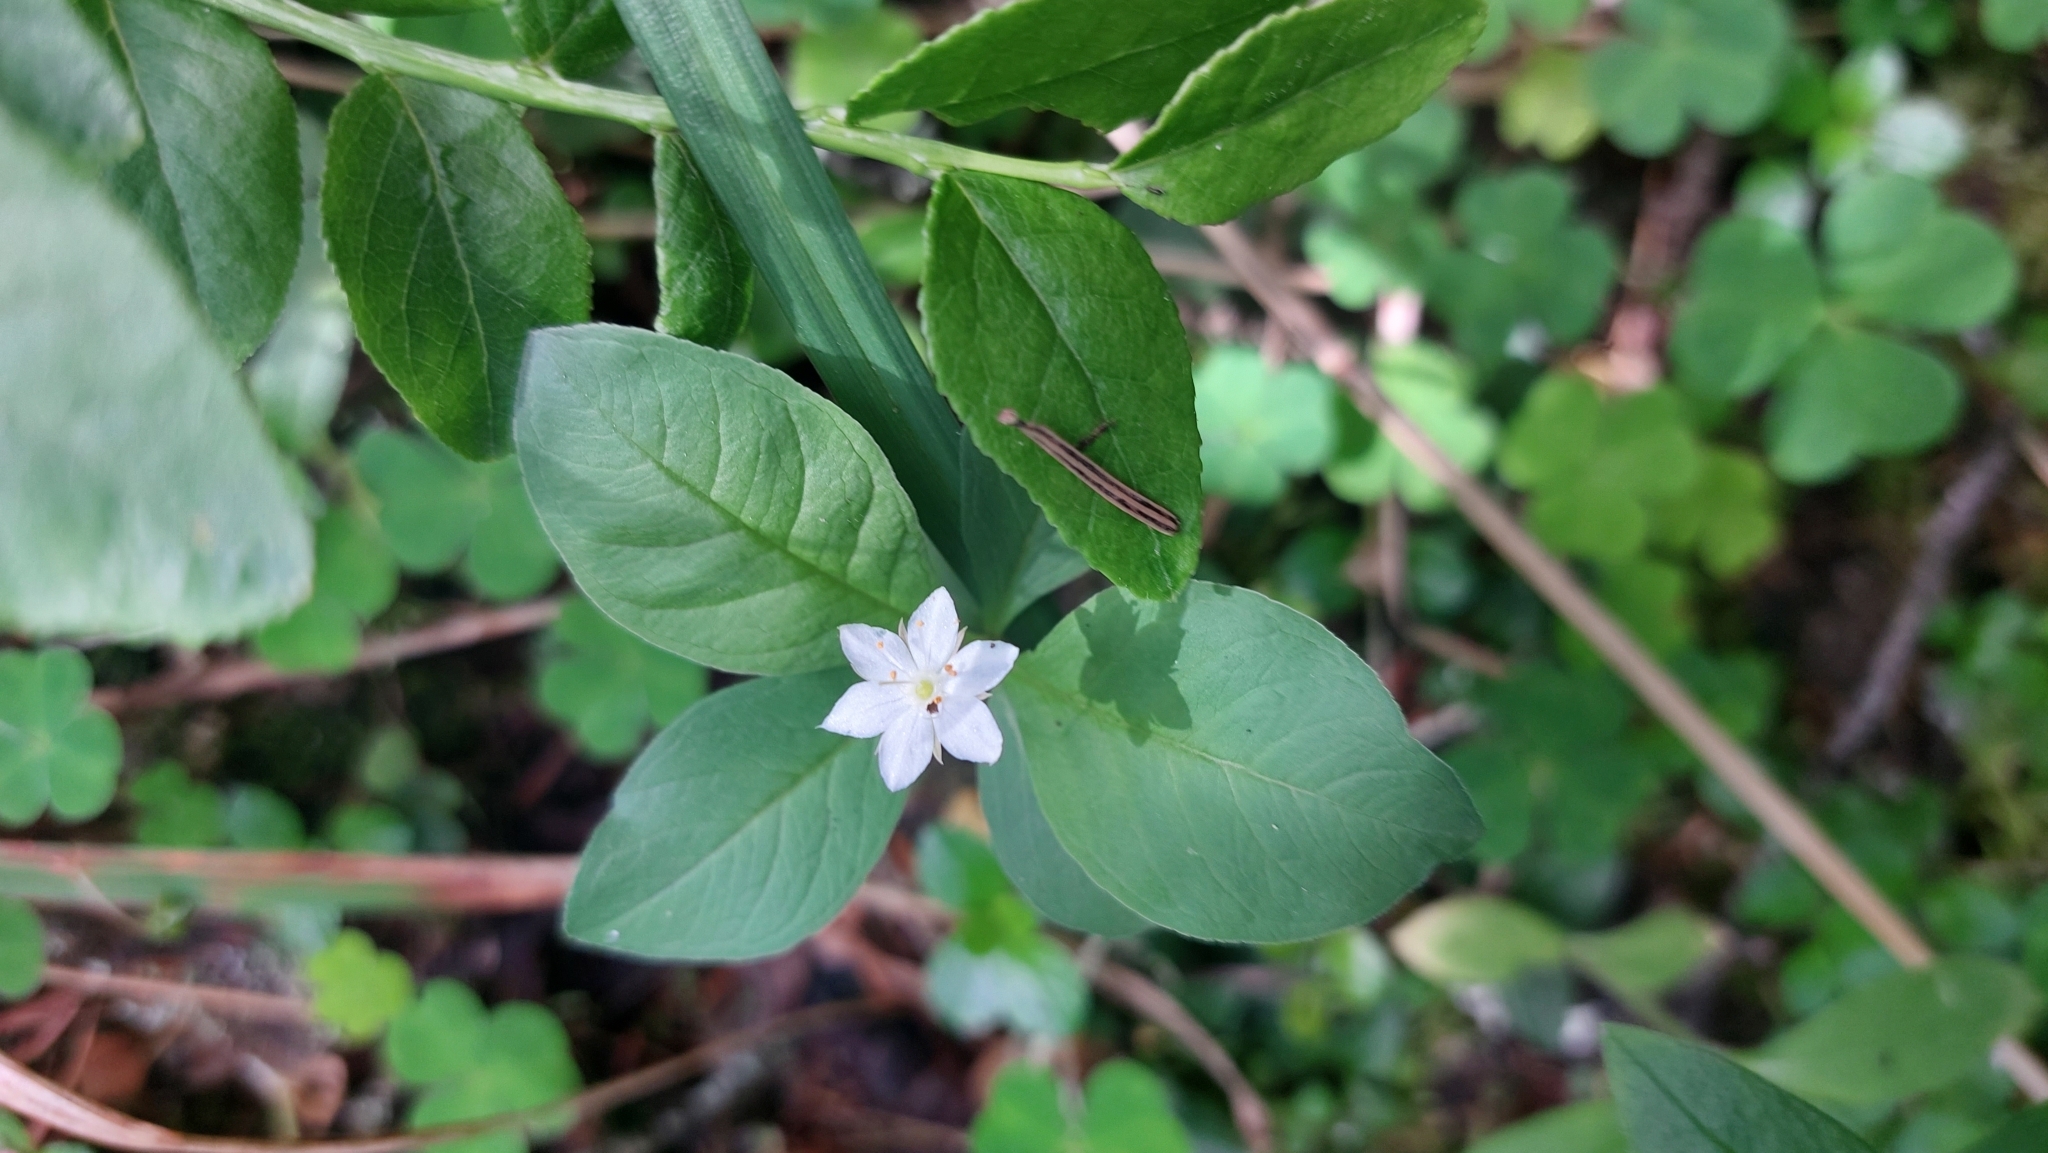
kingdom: Plantae
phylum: Tracheophyta
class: Magnoliopsida
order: Ericales
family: Primulaceae
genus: Lysimachia
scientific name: Lysimachia europaea
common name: Arctic starflower
